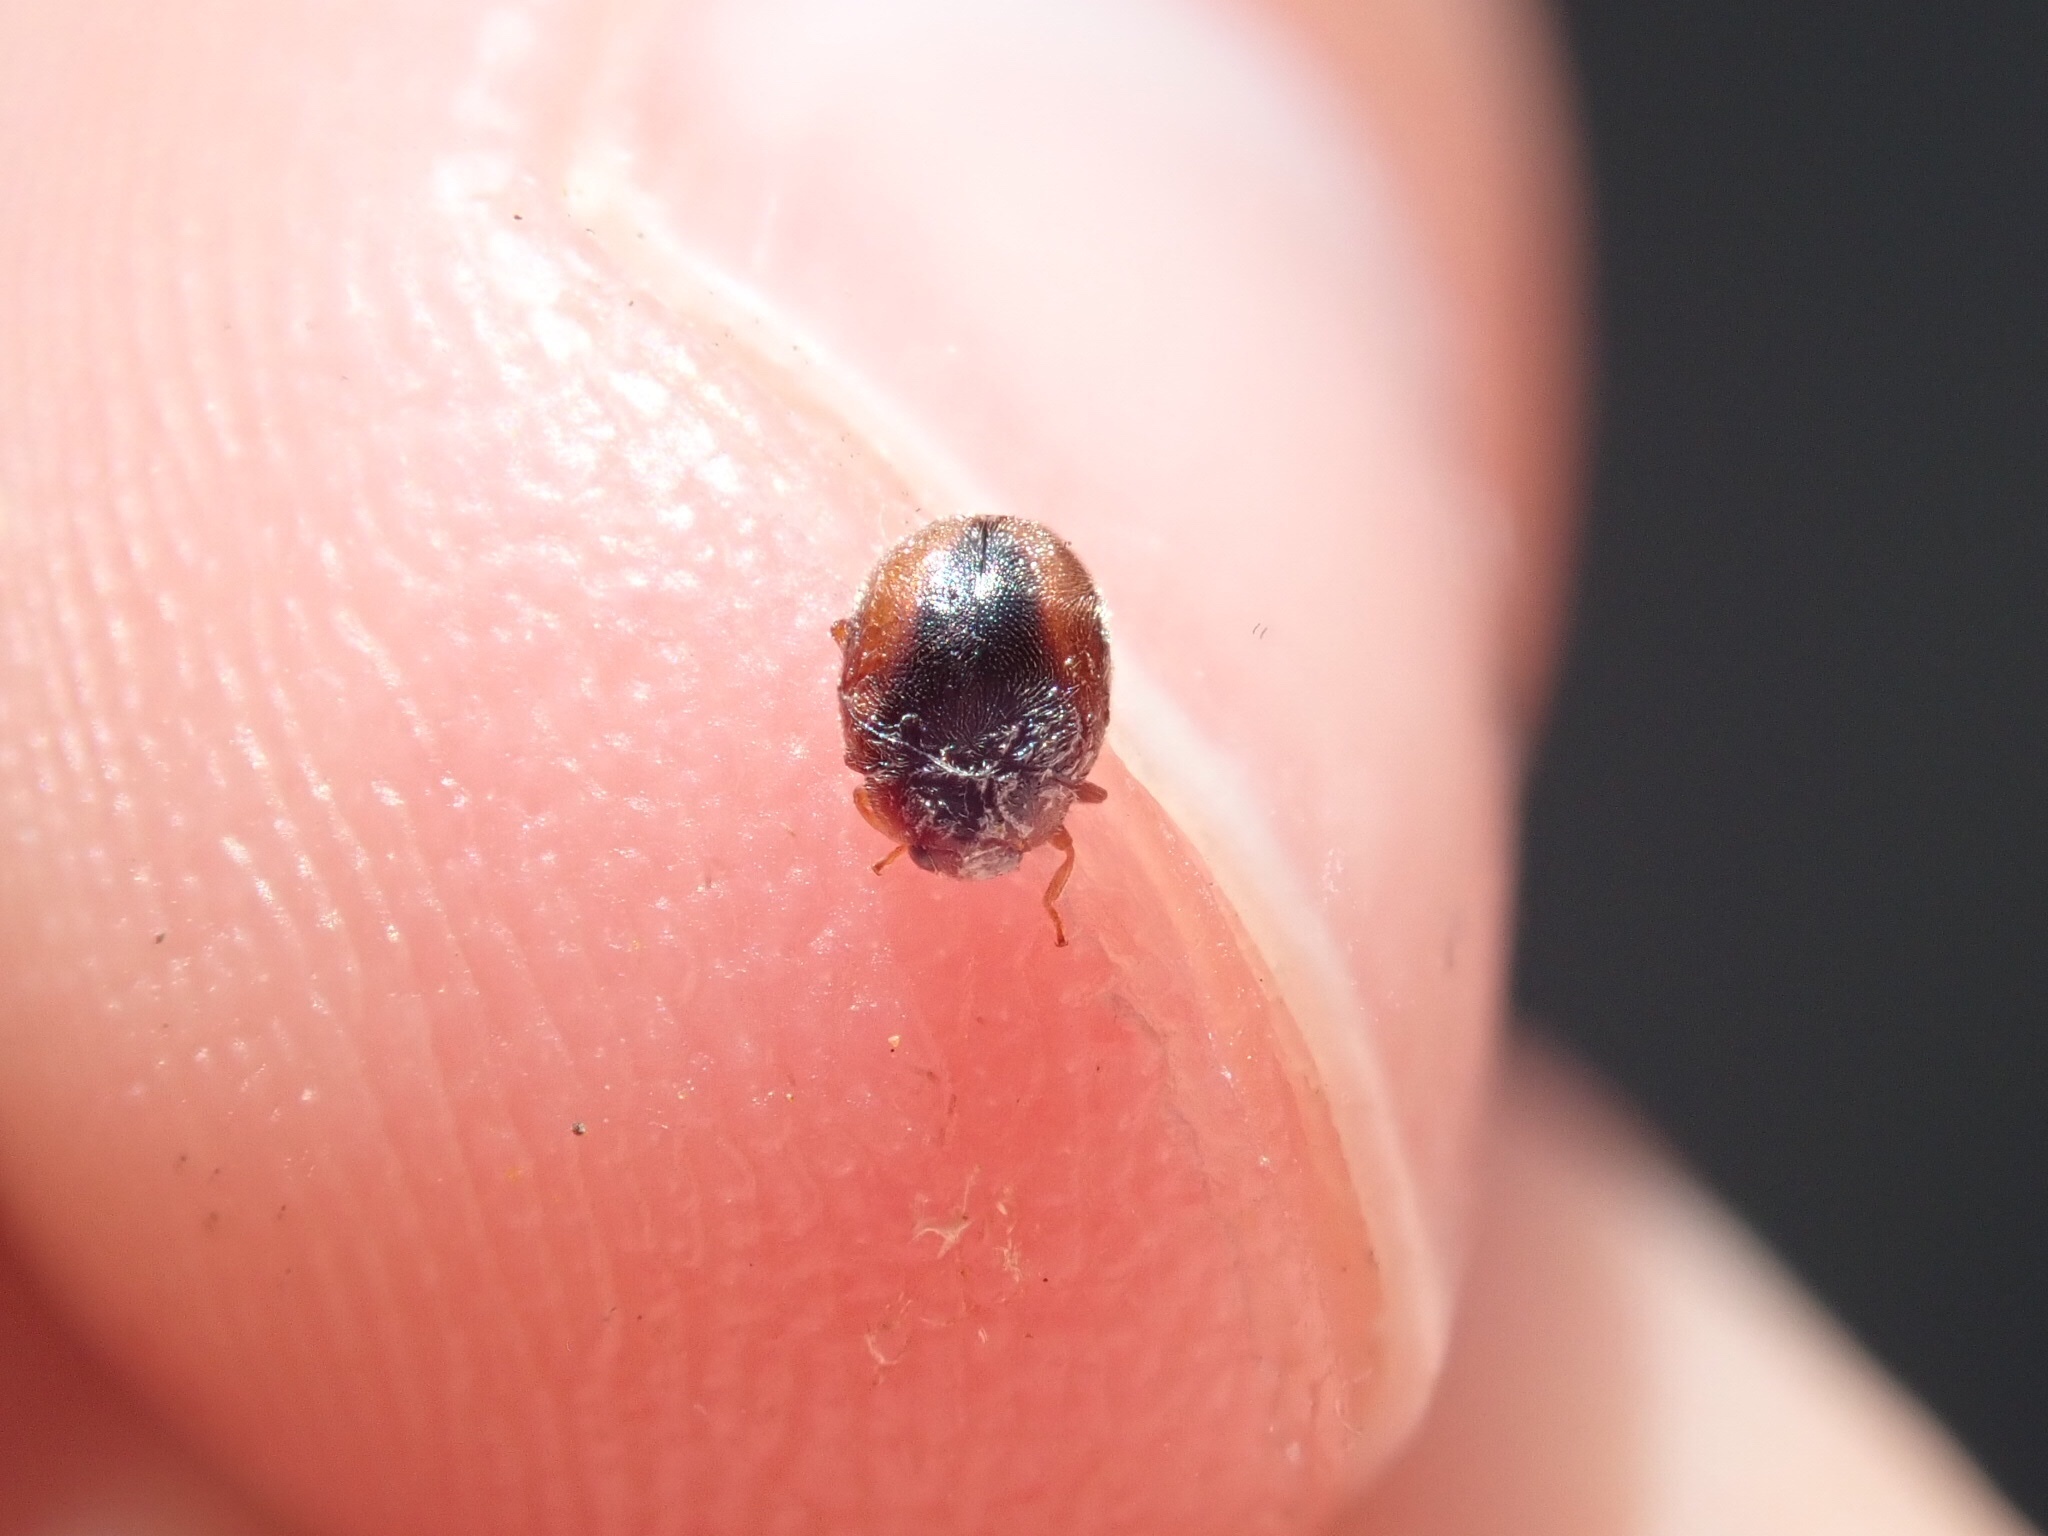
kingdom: Animalia
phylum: Arthropoda
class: Insecta
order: Coleoptera
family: Coccinellidae
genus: Scymnus
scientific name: Scymnus loewii
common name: Dusky lady beetle
